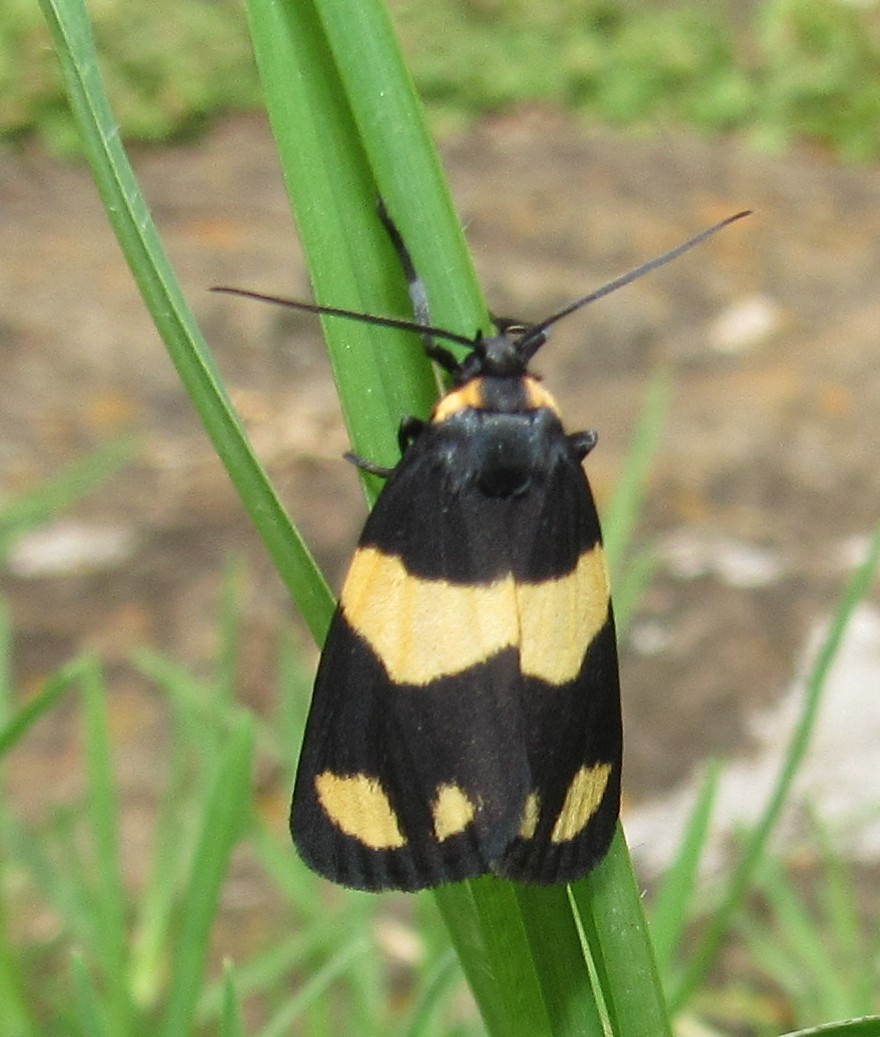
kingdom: Animalia
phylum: Arthropoda
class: Insecta
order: Lepidoptera
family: Erebidae
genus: Eudesmia
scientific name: Eudesmia
